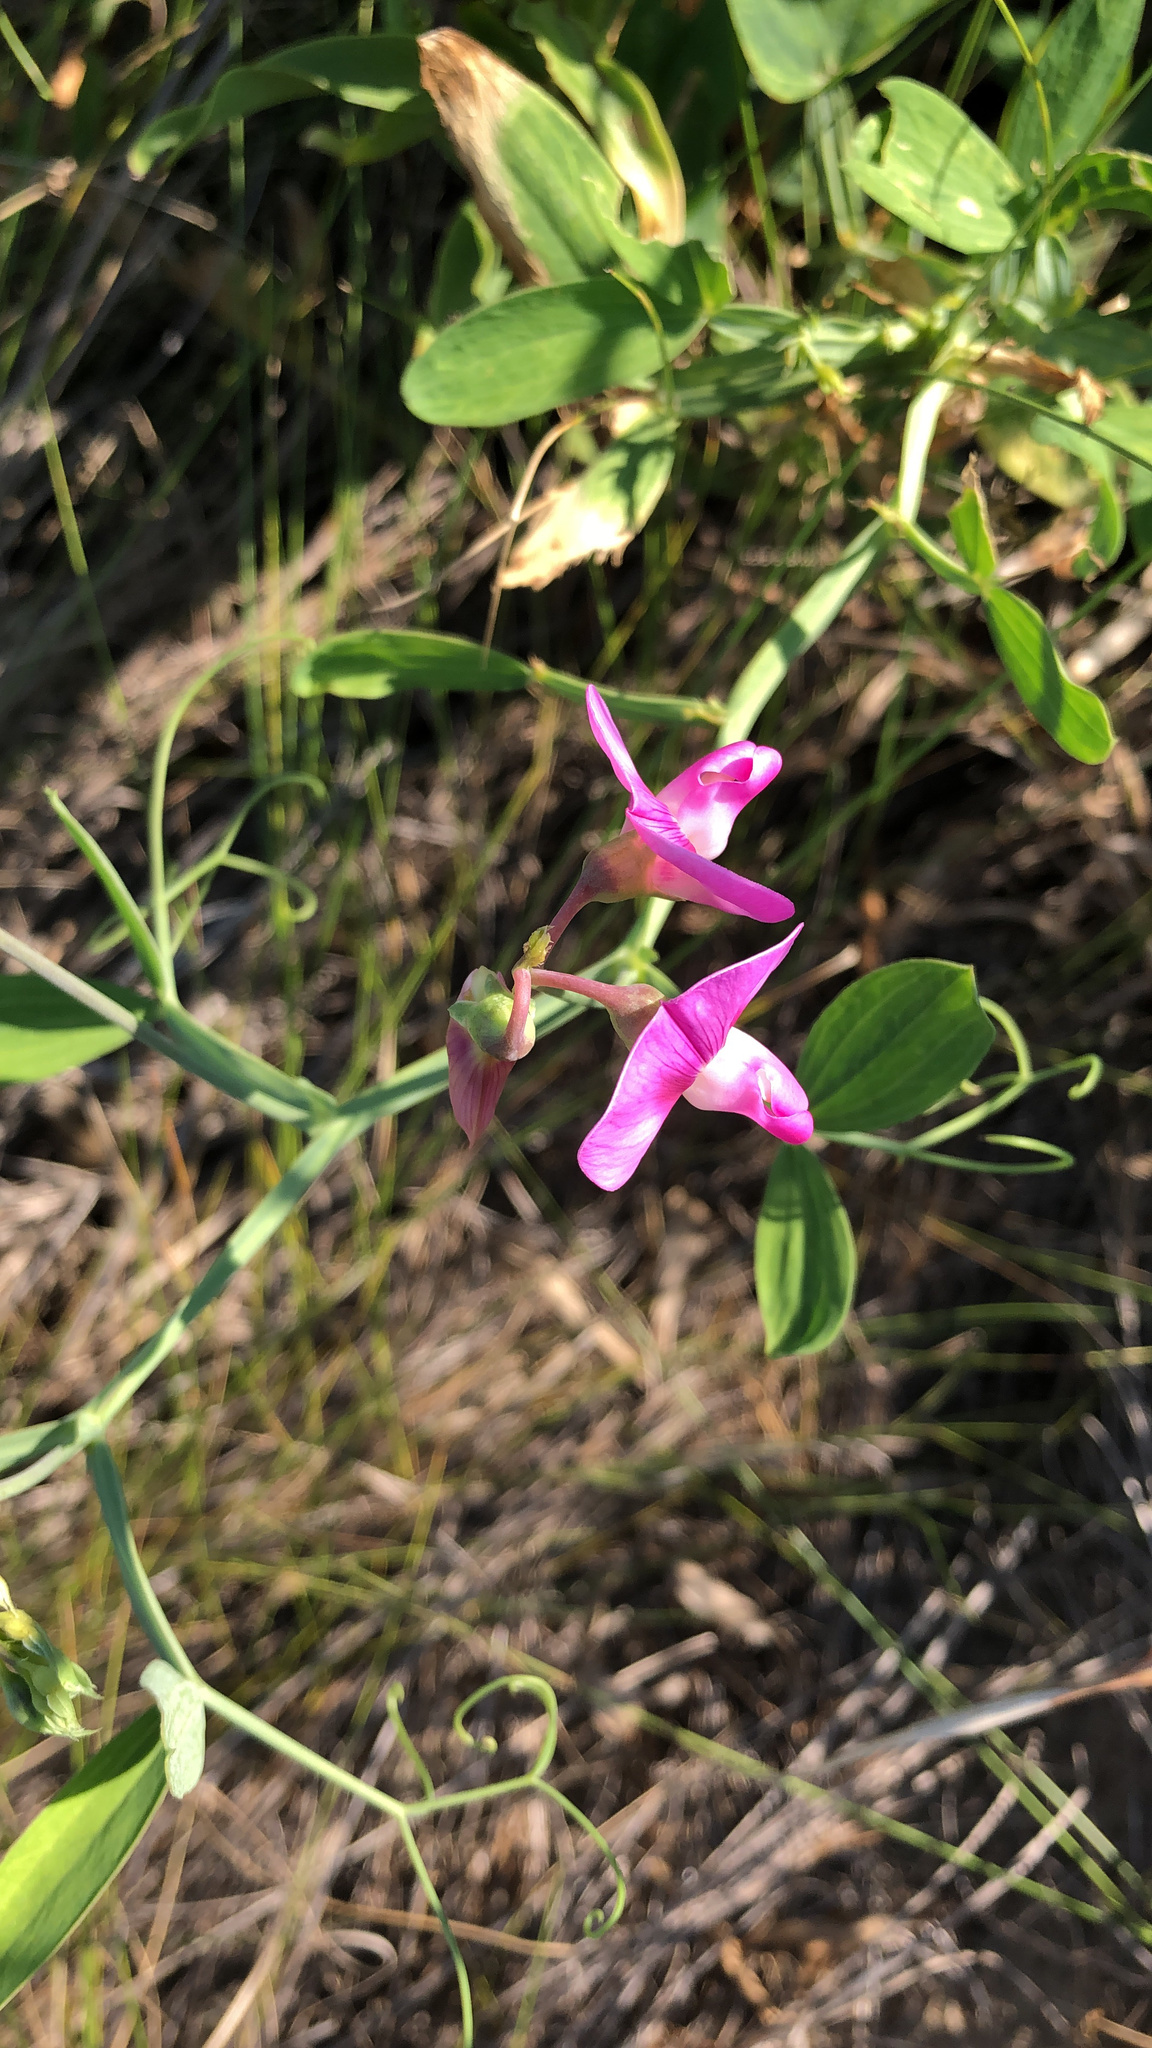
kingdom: Plantae
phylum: Tracheophyta
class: Magnoliopsida
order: Fabales
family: Fabaceae
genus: Lathyrus
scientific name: Lathyrus latifolius
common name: Perennial pea
